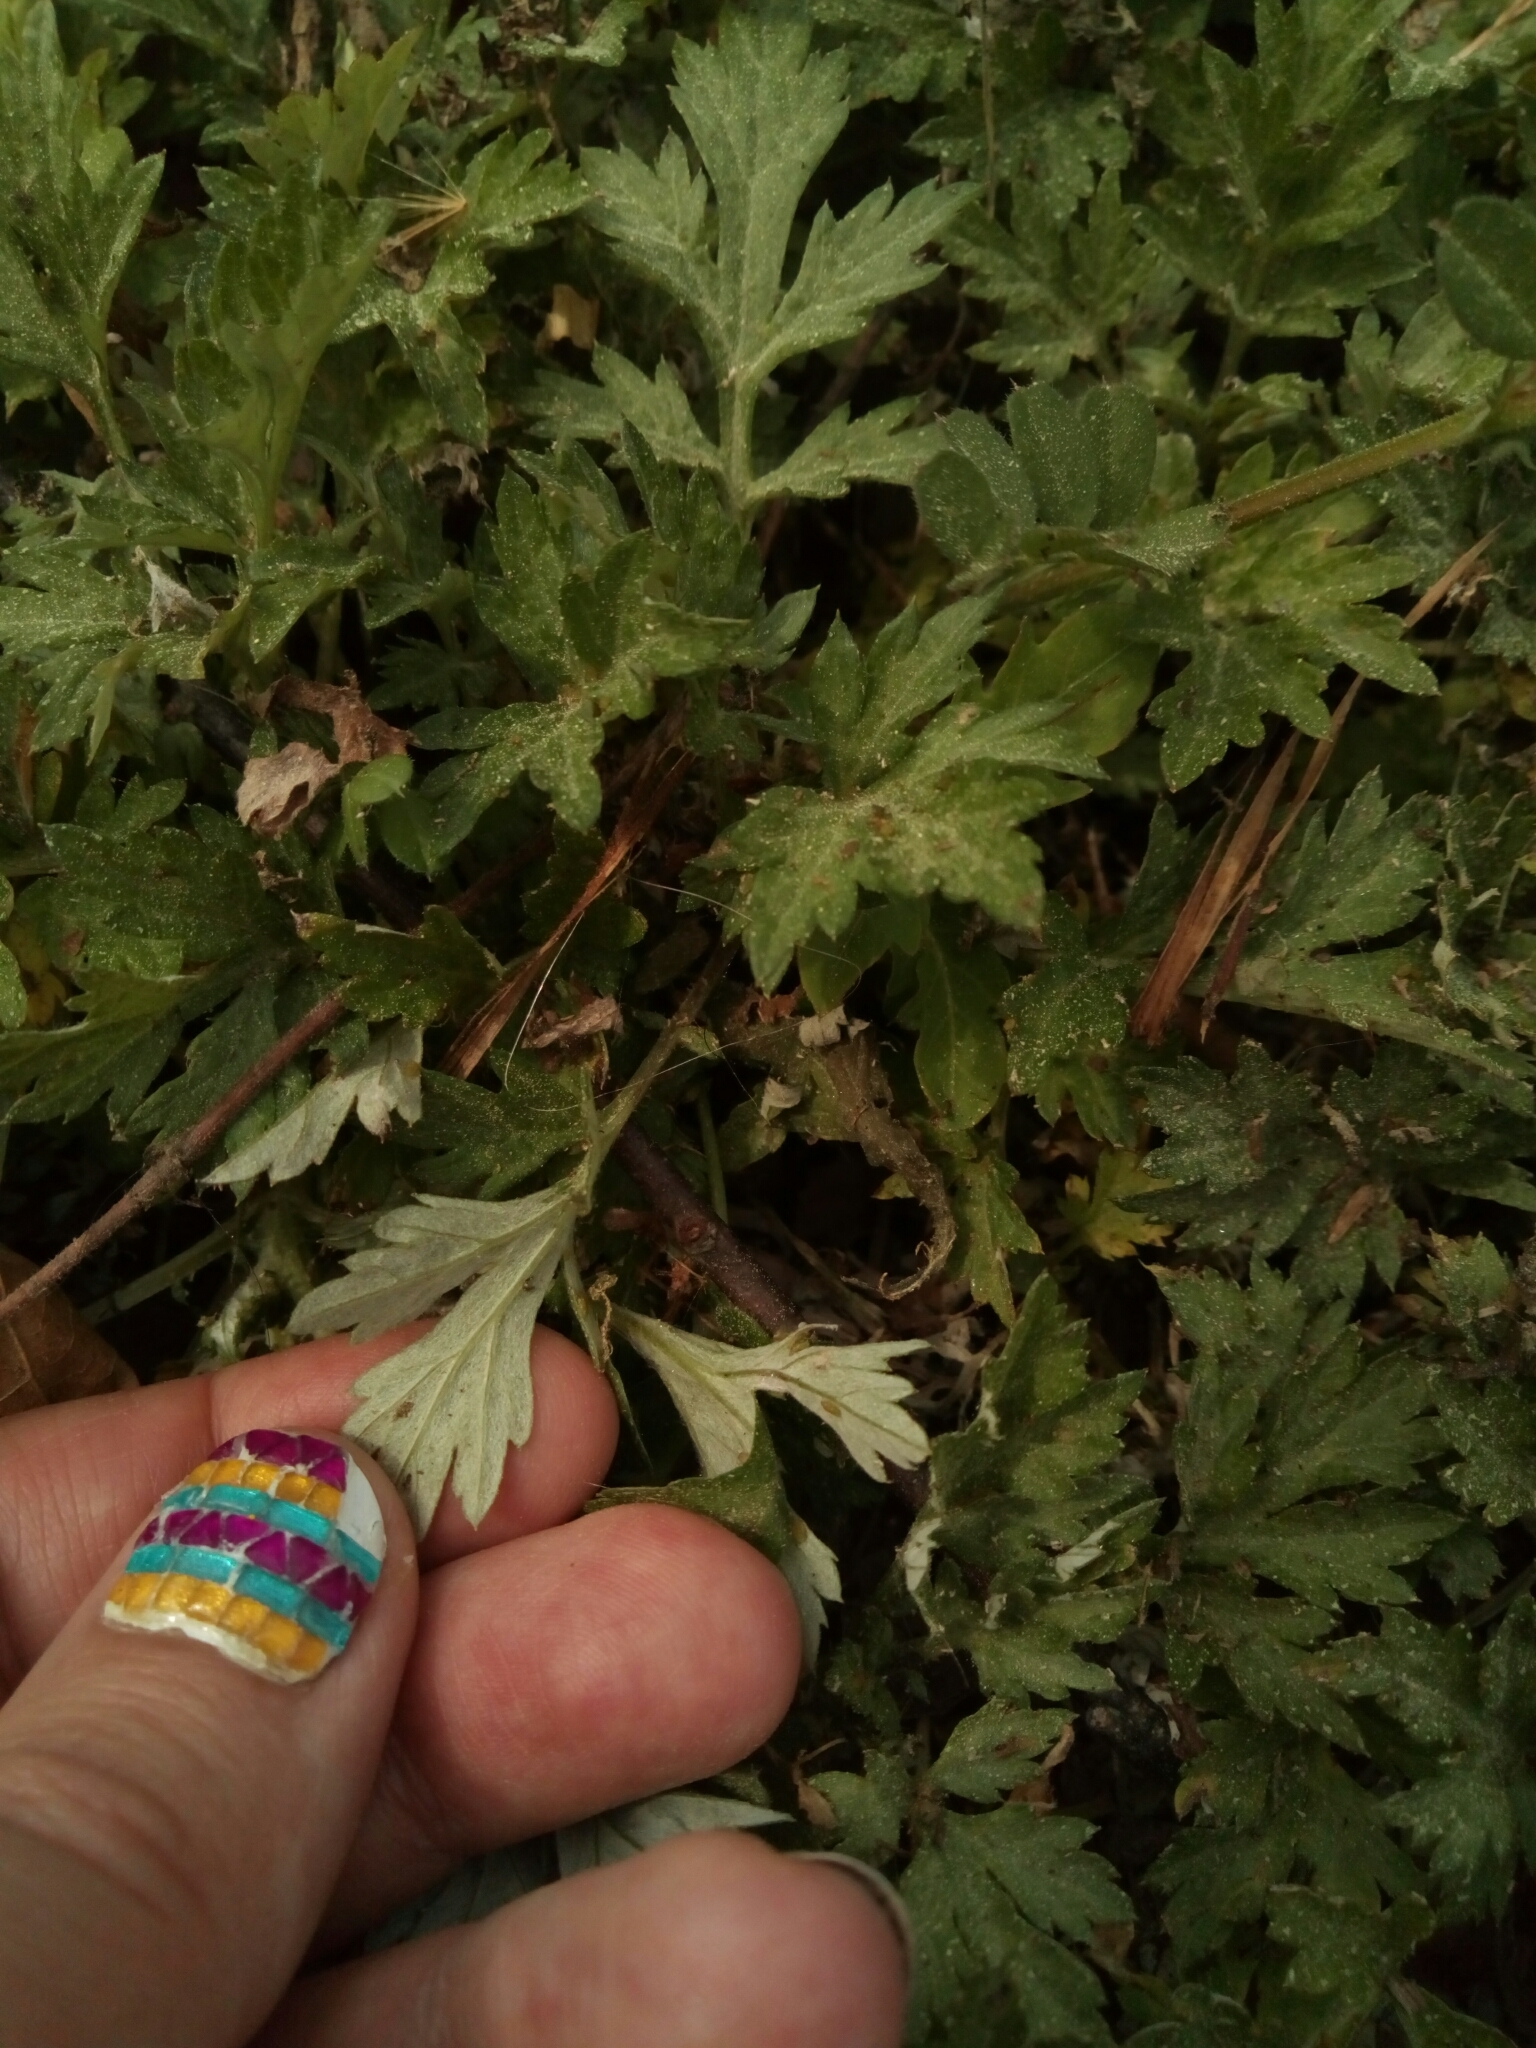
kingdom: Plantae
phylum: Tracheophyta
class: Magnoliopsida
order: Asterales
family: Asteraceae
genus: Artemisia
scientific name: Artemisia vulgaris
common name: Mugwort
